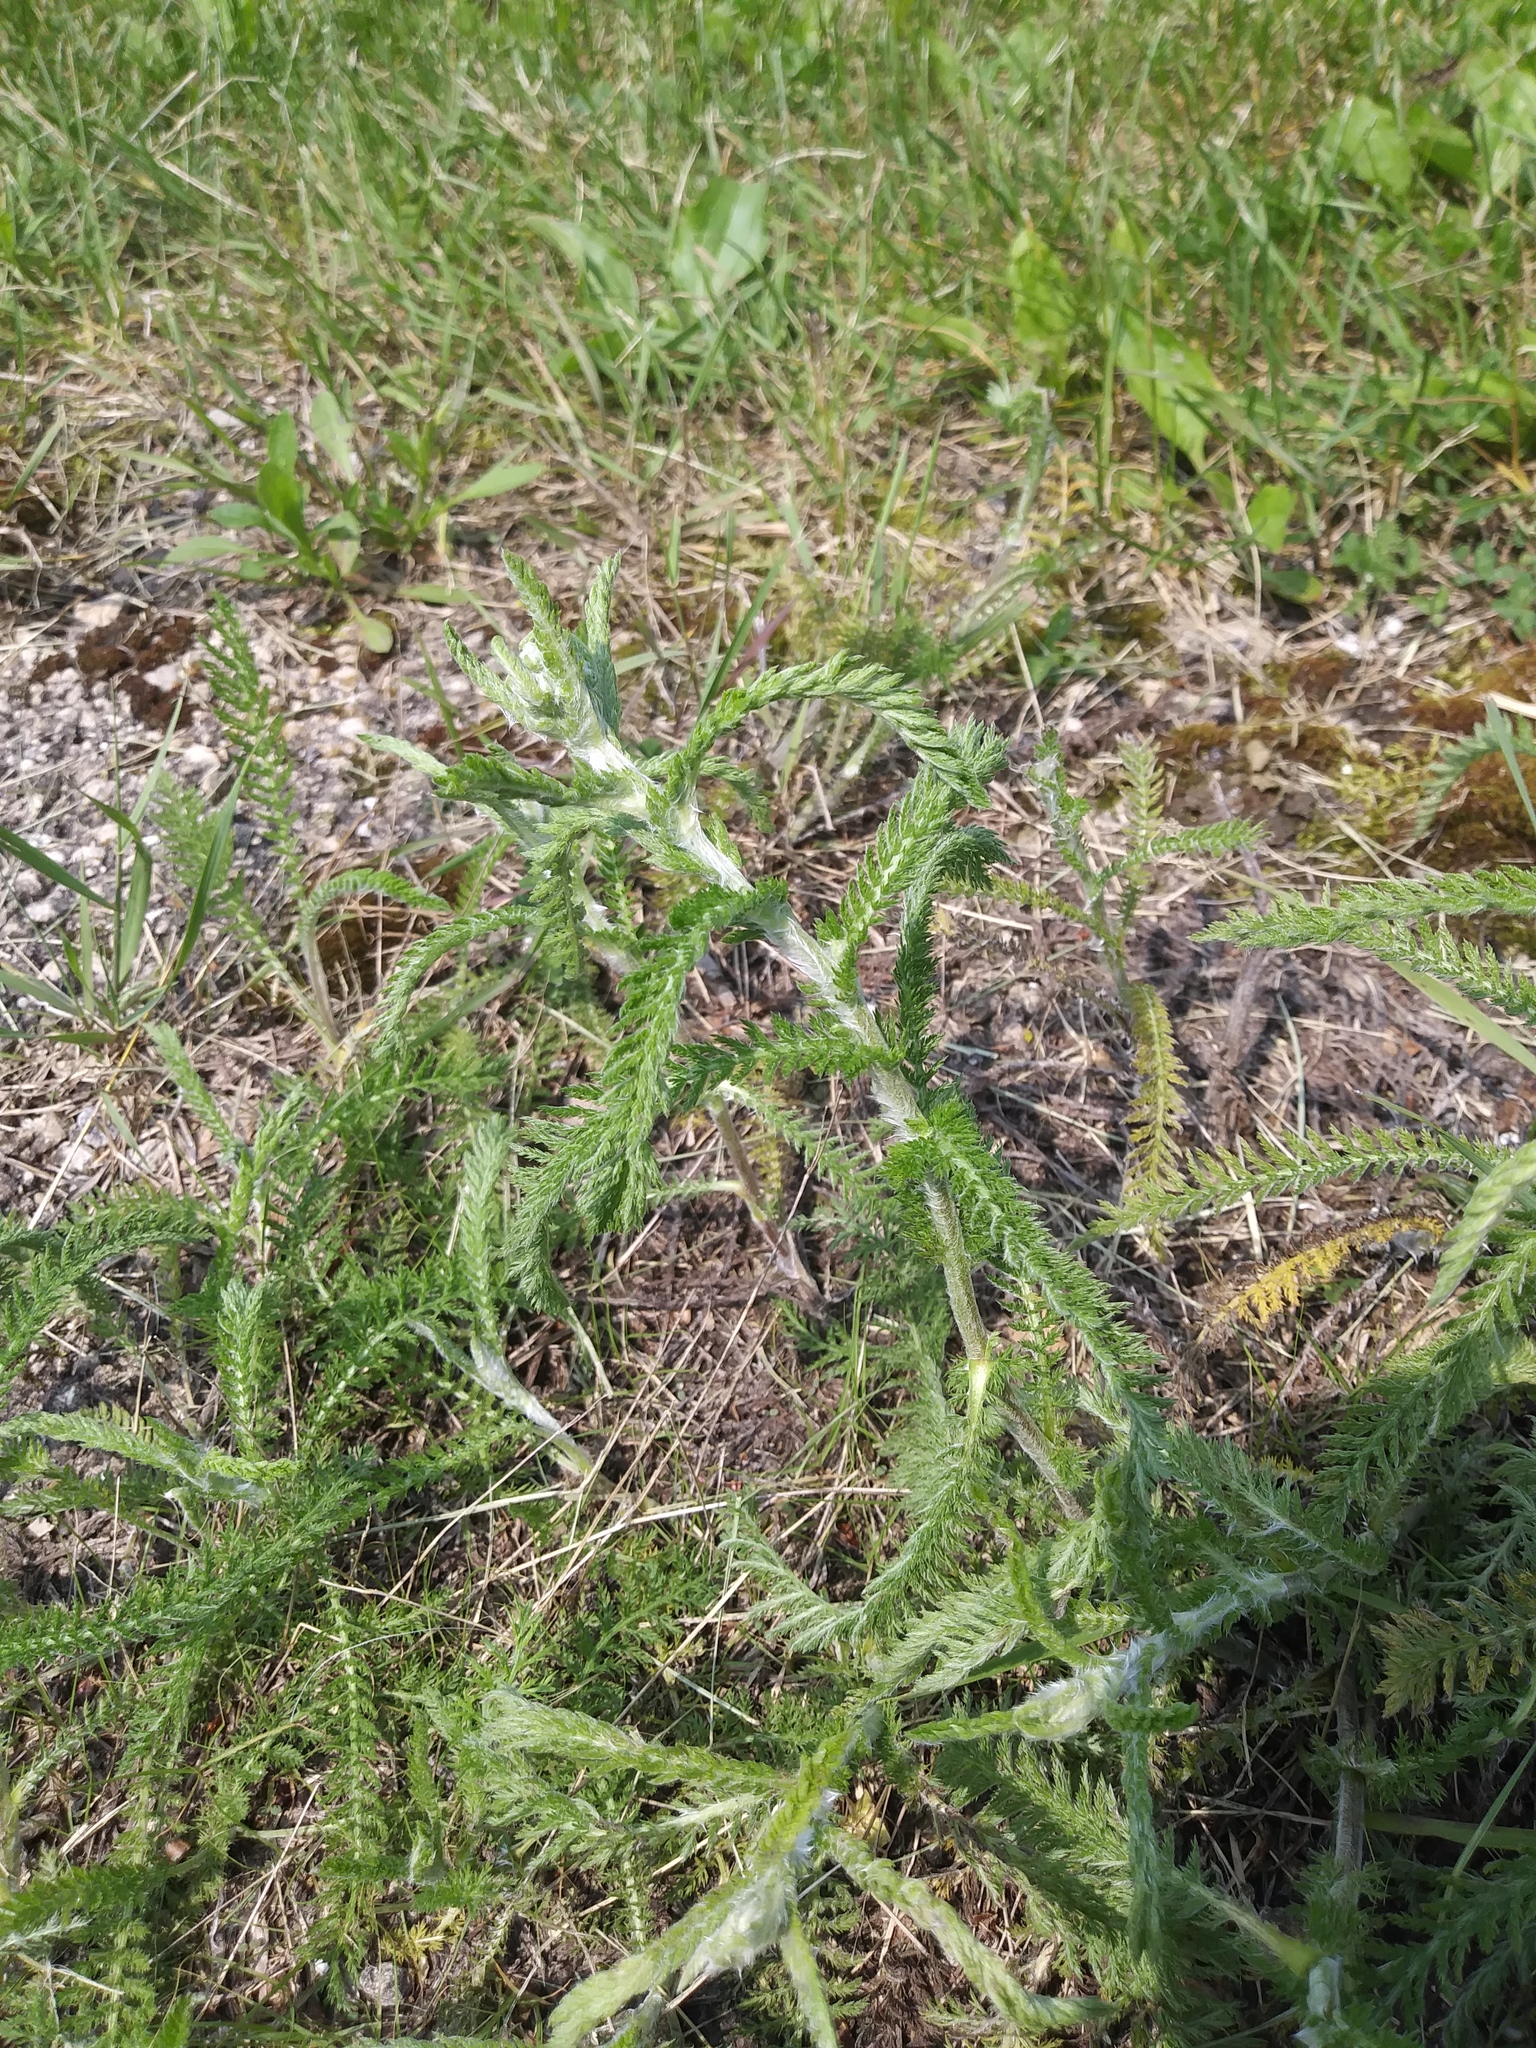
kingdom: Plantae
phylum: Tracheophyta
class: Magnoliopsida
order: Asterales
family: Asteraceae
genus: Achillea
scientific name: Achillea millefolium
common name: Yarrow
